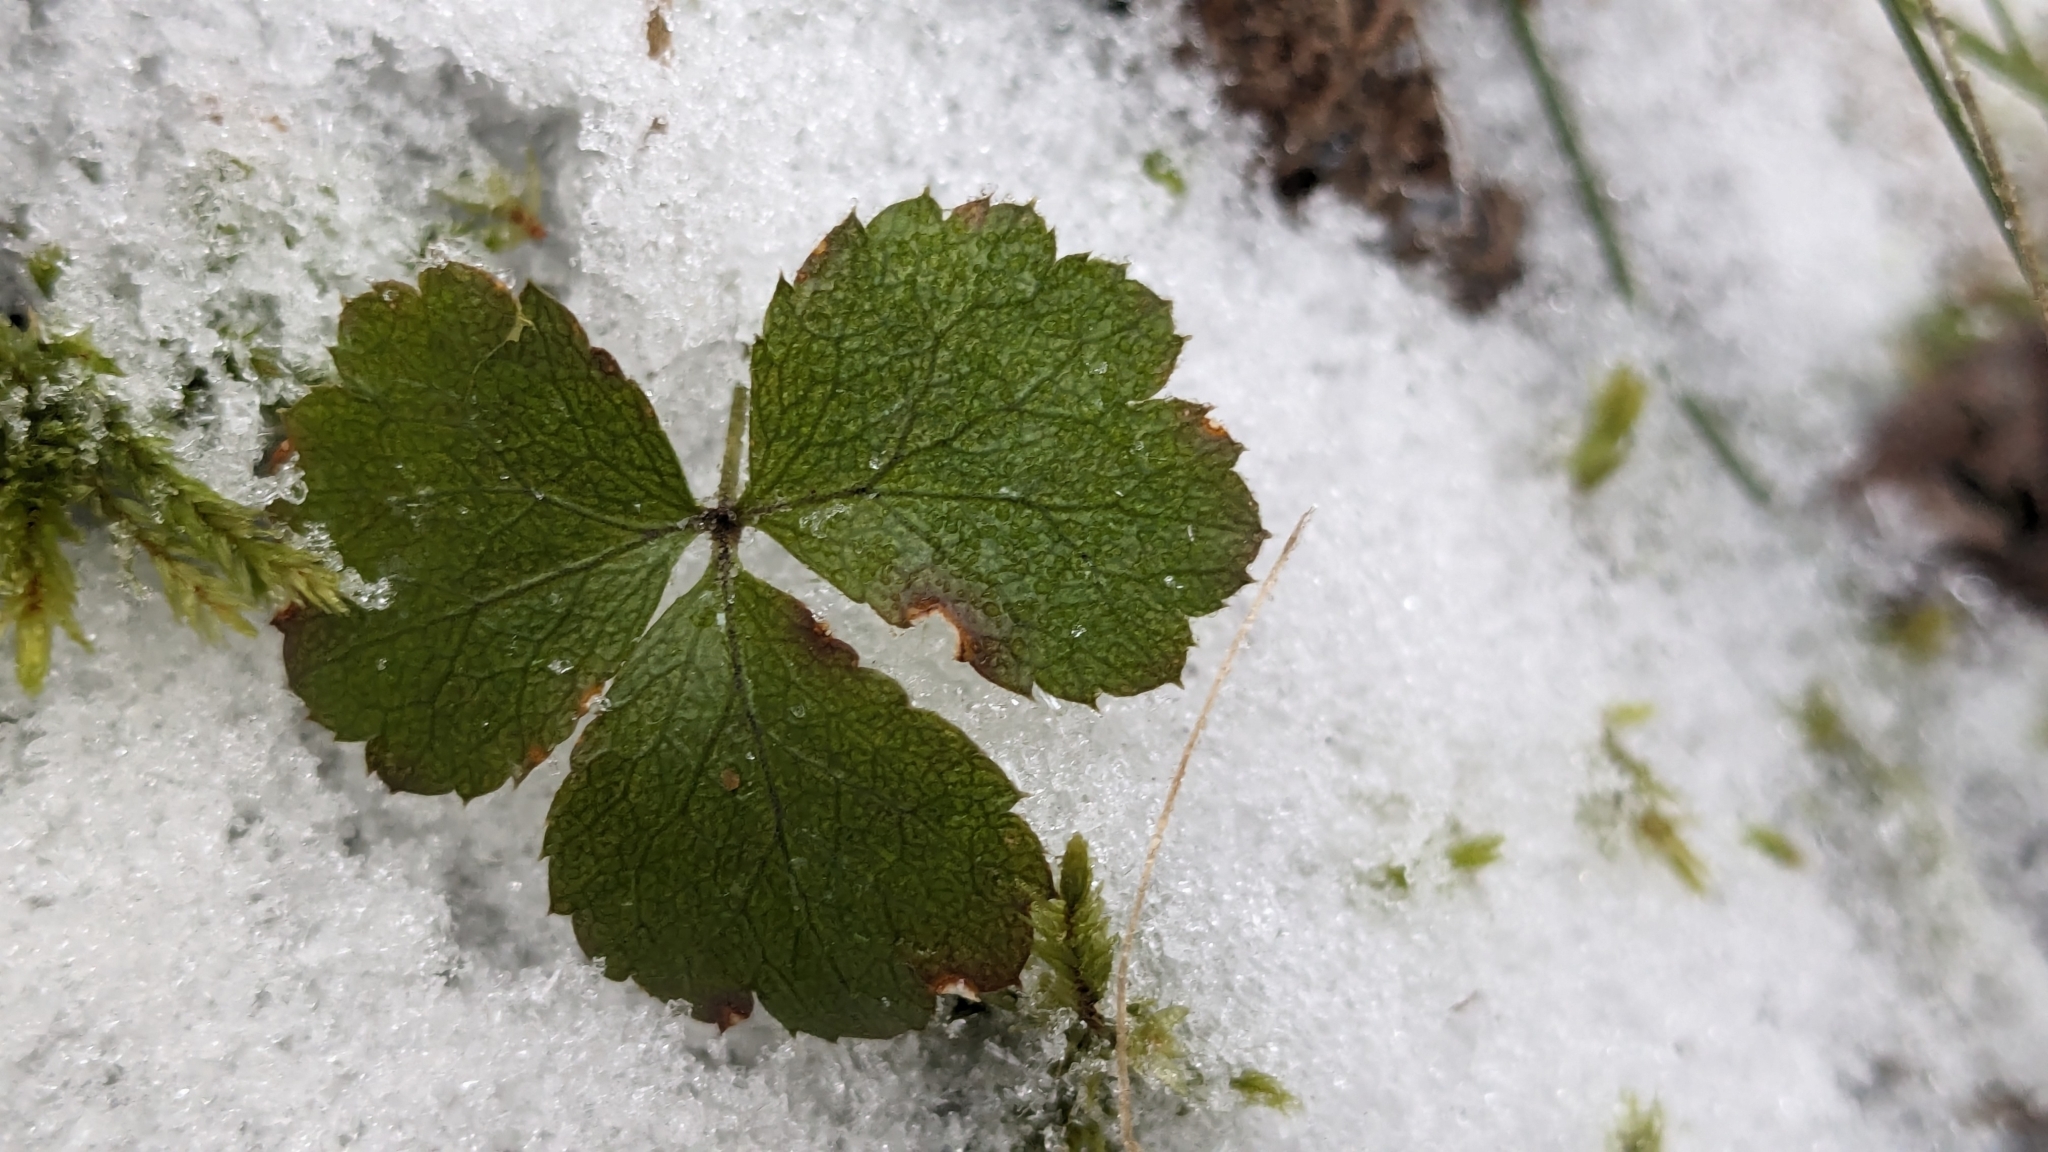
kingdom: Plantae
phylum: Tracheophyta
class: Magnoliopsida
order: Ranunculales
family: Ranunculaceae
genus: Coptis
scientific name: Coptis trifolia
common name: Canker-root
